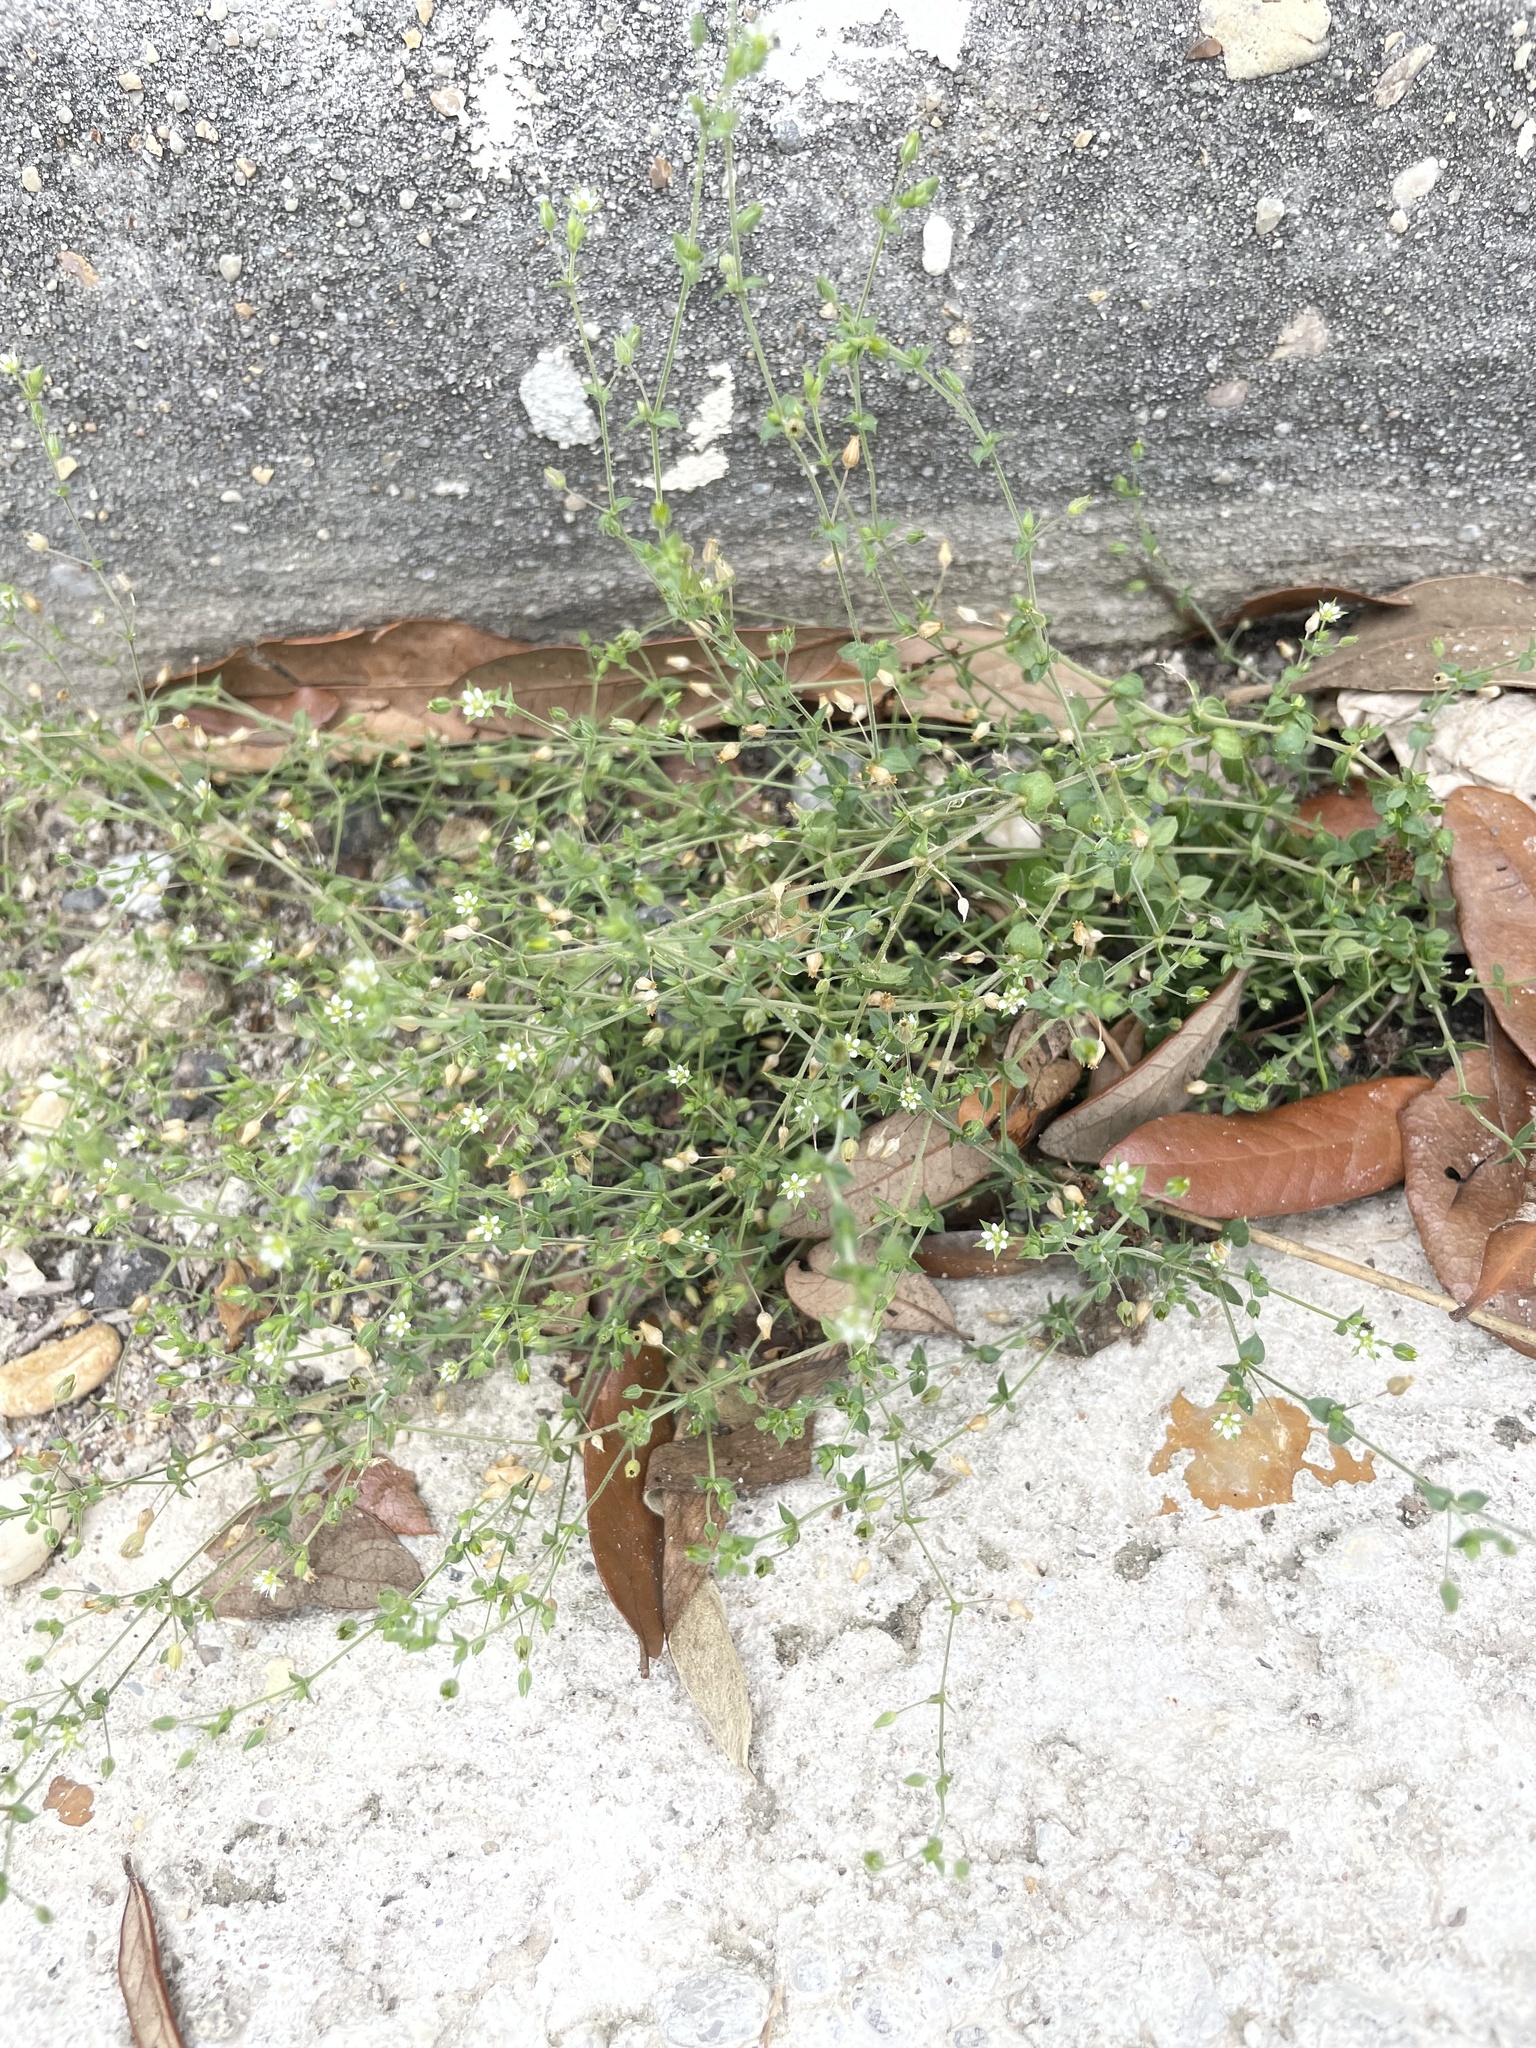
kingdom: Plantae
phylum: Tracheophyta
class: Magnoliopsida
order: Caryophyllales
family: Caryophyllaceae
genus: Arenaria
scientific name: Arenaria serpyllifolia
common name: Thyme-leaved sandwort
